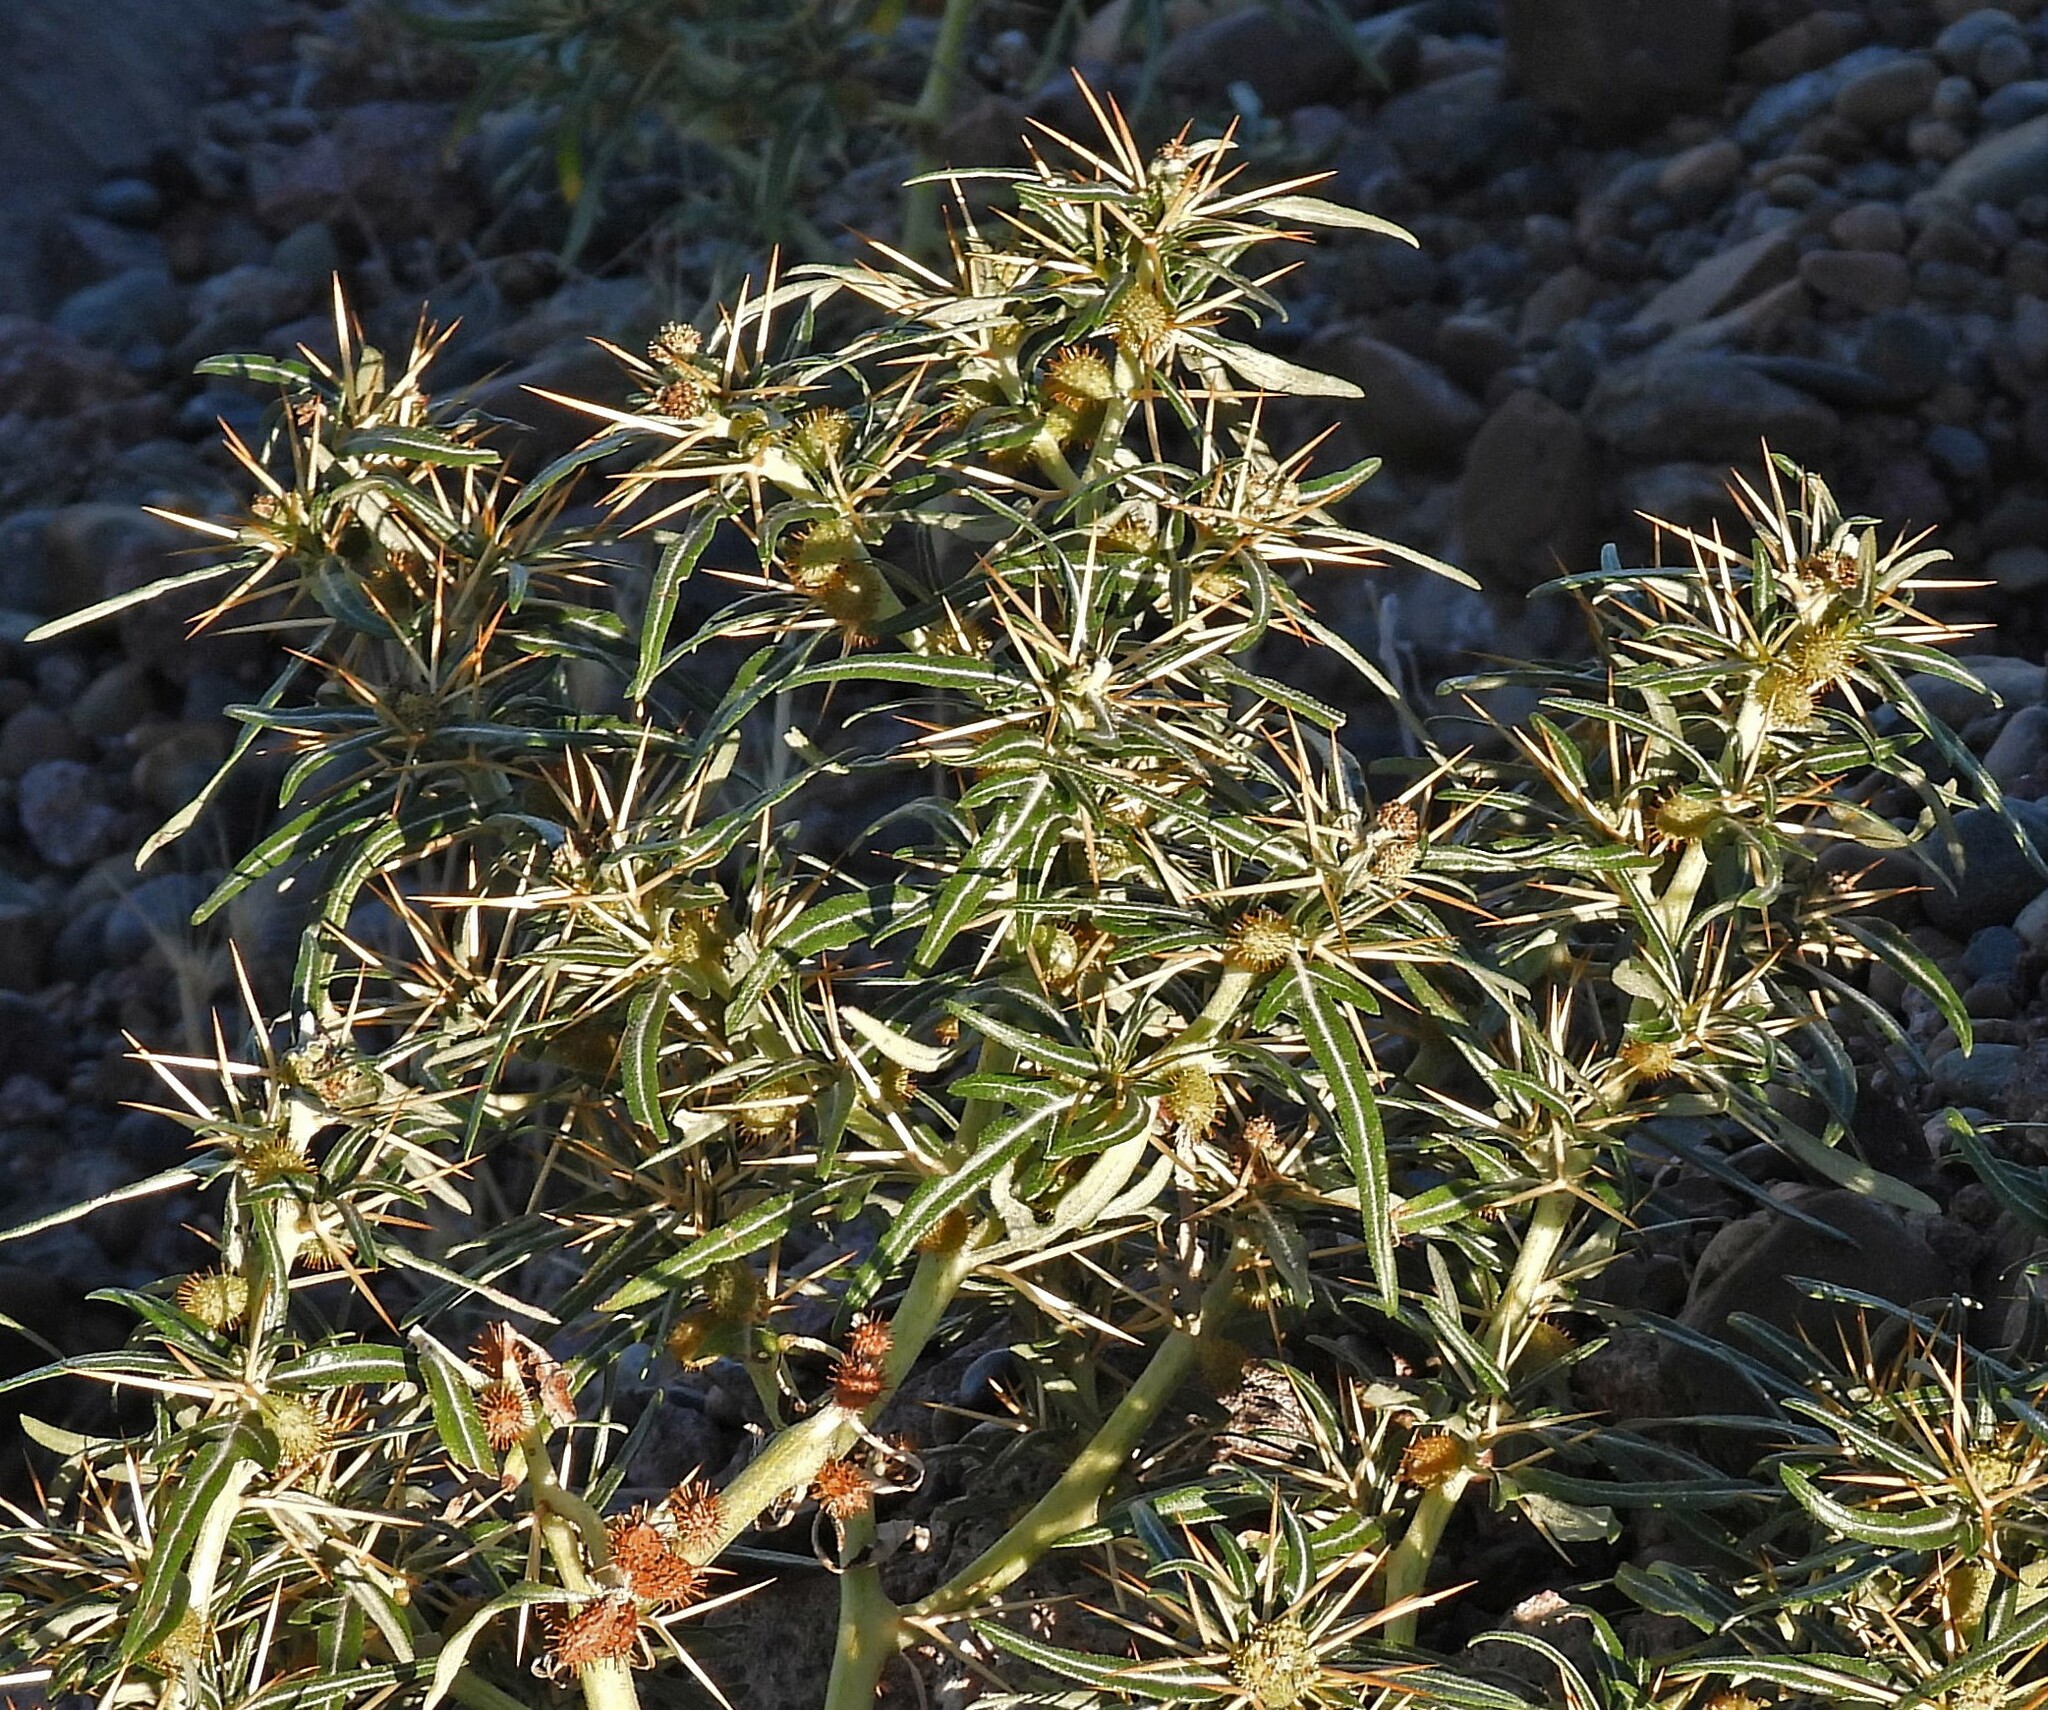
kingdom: Plantae
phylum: Tracheophyta
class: Magnoliopsida
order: Asterales
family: Asteraceae
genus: Xanthium
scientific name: Xanthium spinosum
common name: Spiny cocklebur
